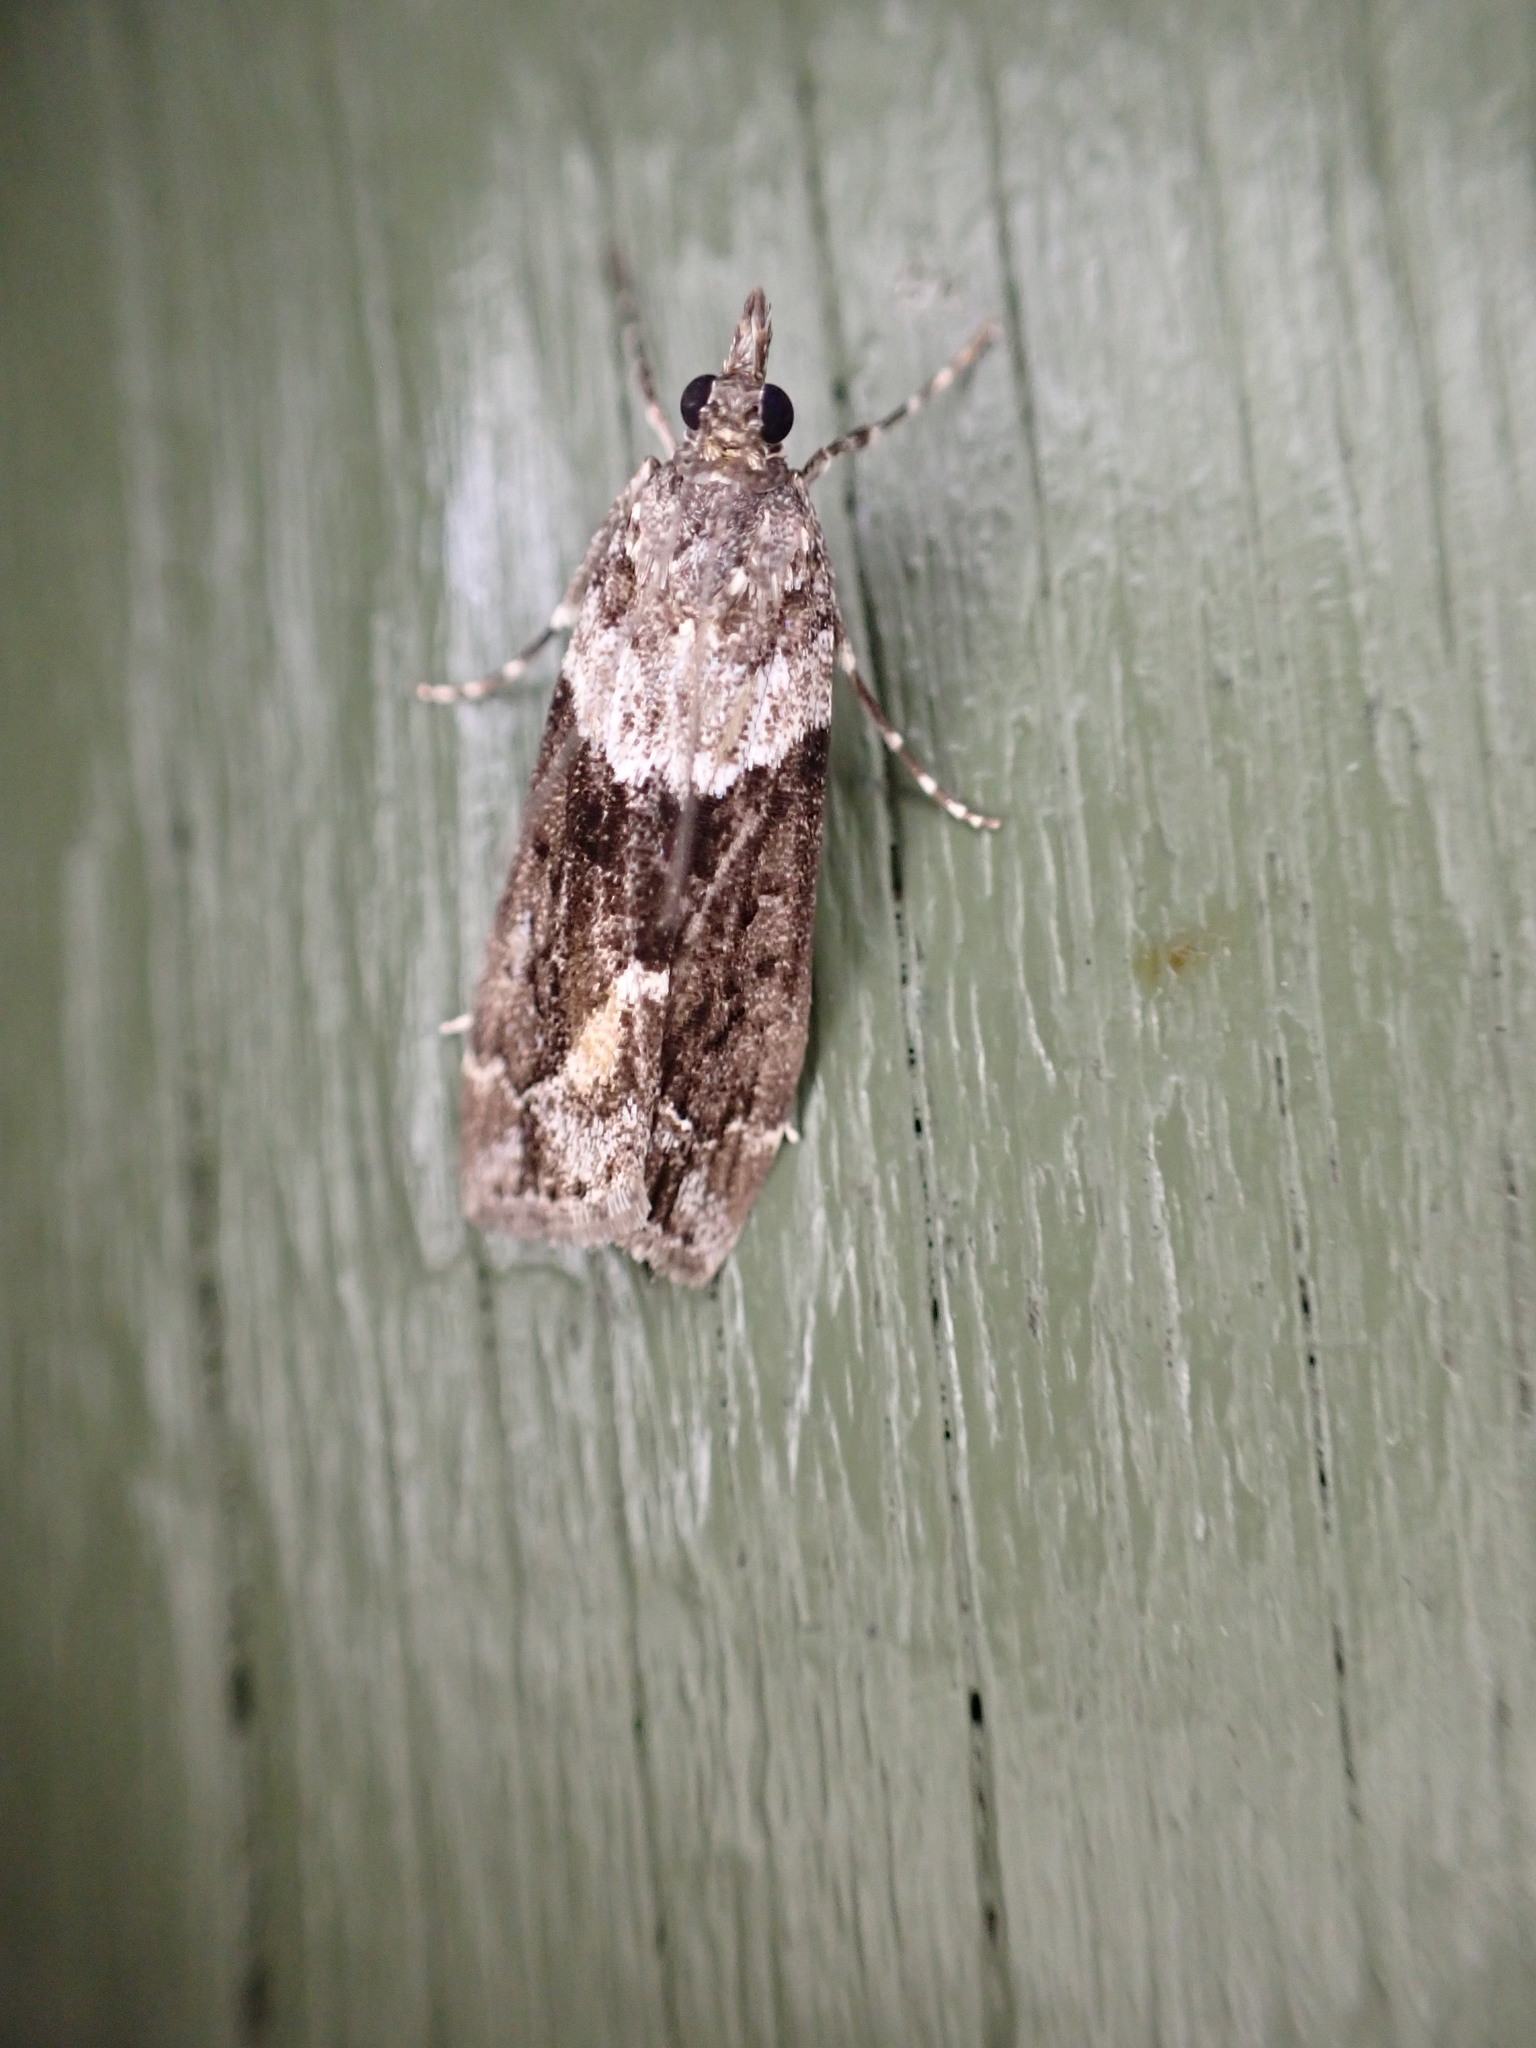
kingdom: Animalia
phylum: Arthropoda
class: Insecta
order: Lepidoptera
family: Crambidae
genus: Eudonia
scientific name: Eudonia submarginalis
